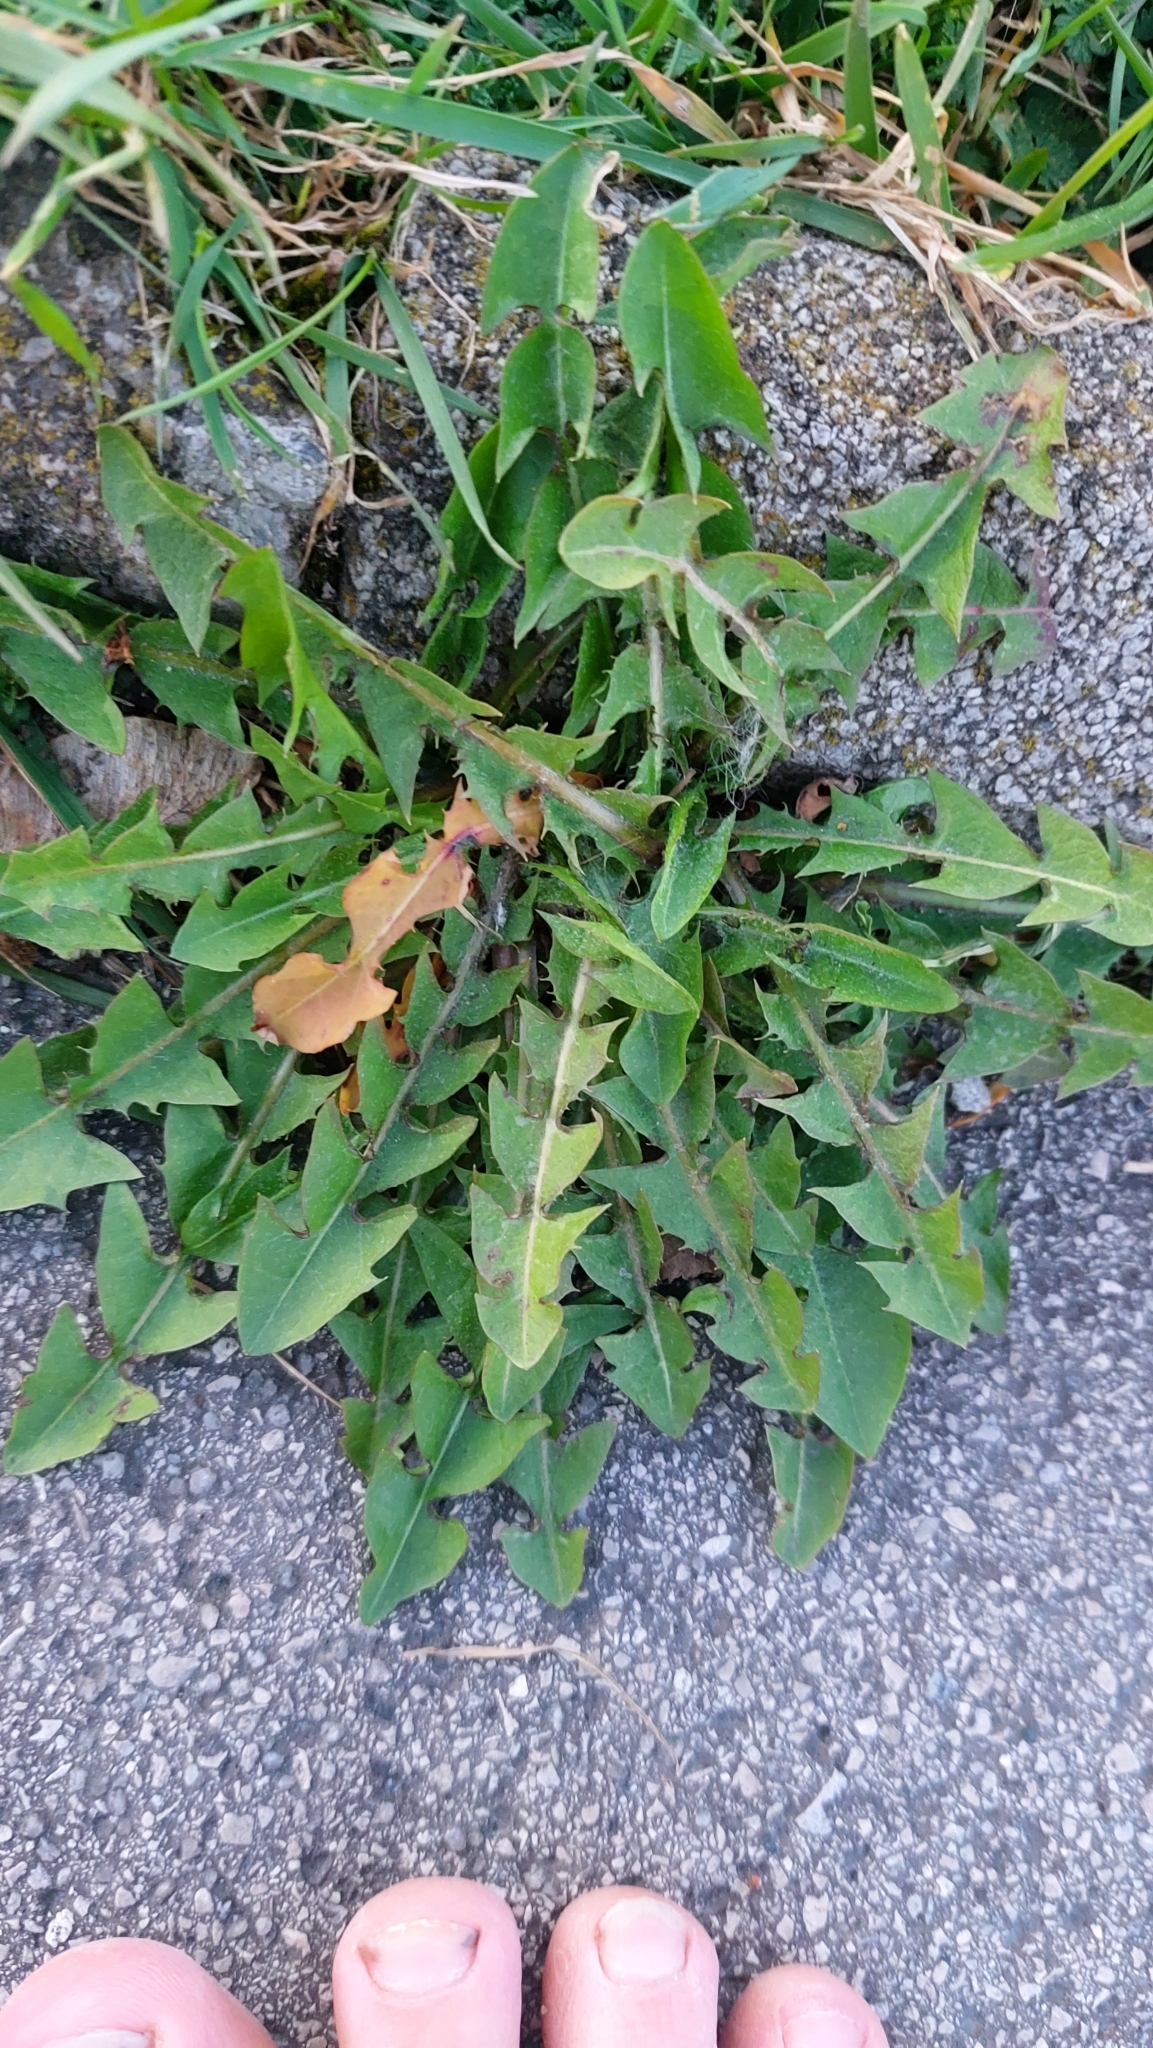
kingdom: Plantae
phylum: Tracheophyta
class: Magnoliopsida
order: Asterales
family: Asteraceae
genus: Taraxacum
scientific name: Taraxacum
